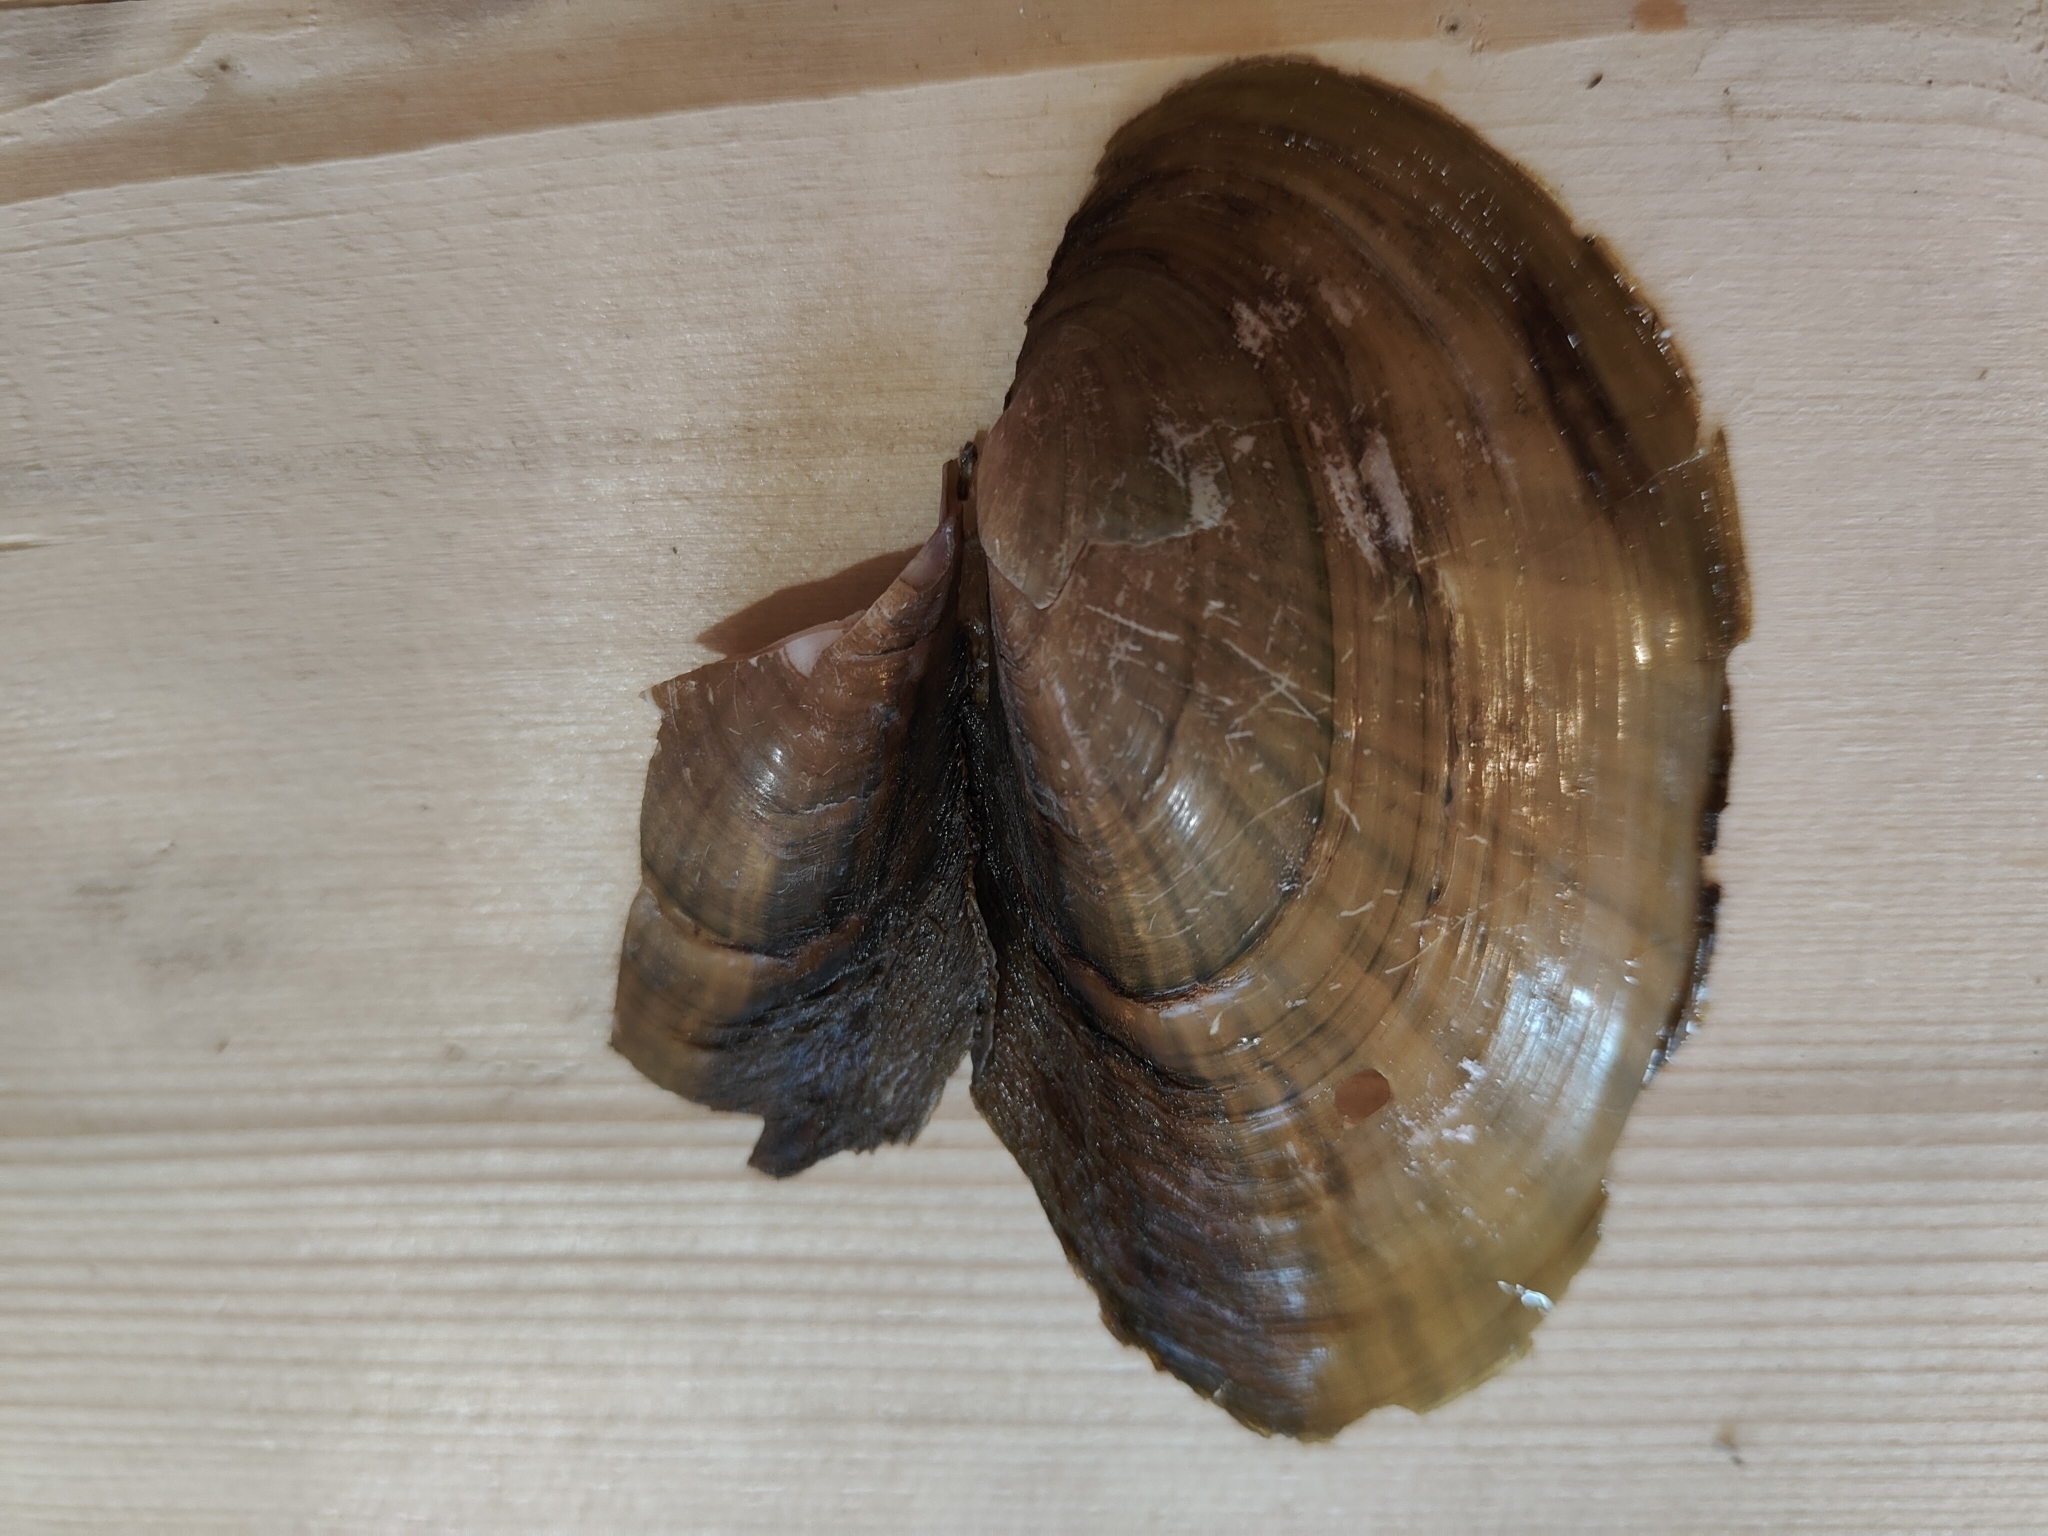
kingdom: Animalia
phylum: Mollusca
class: Bivalvia
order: Unionida
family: Unionidae
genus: Potamilus
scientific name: Potamilus fragilis
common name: Fragile papershell
